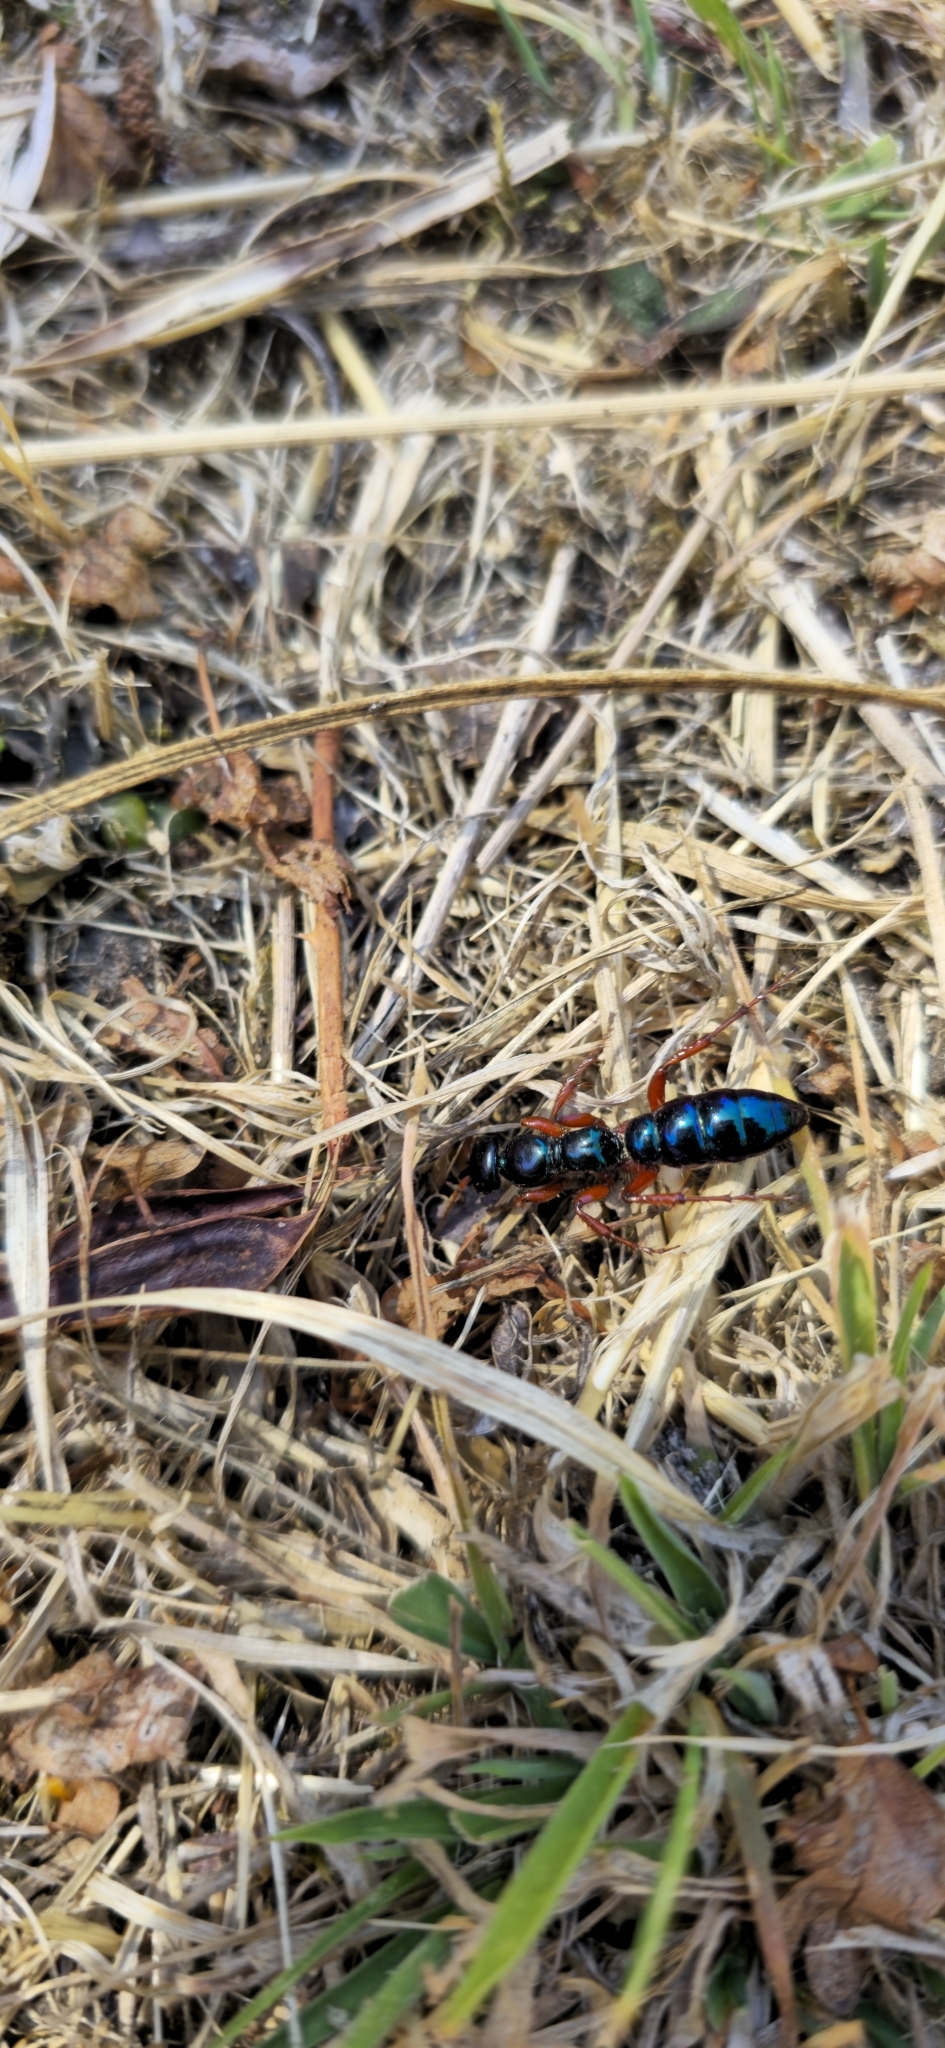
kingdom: Animalia
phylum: Arthropoda
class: Insecta
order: Hymenoptera
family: Tiphiidae
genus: Diamma
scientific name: Diamma
